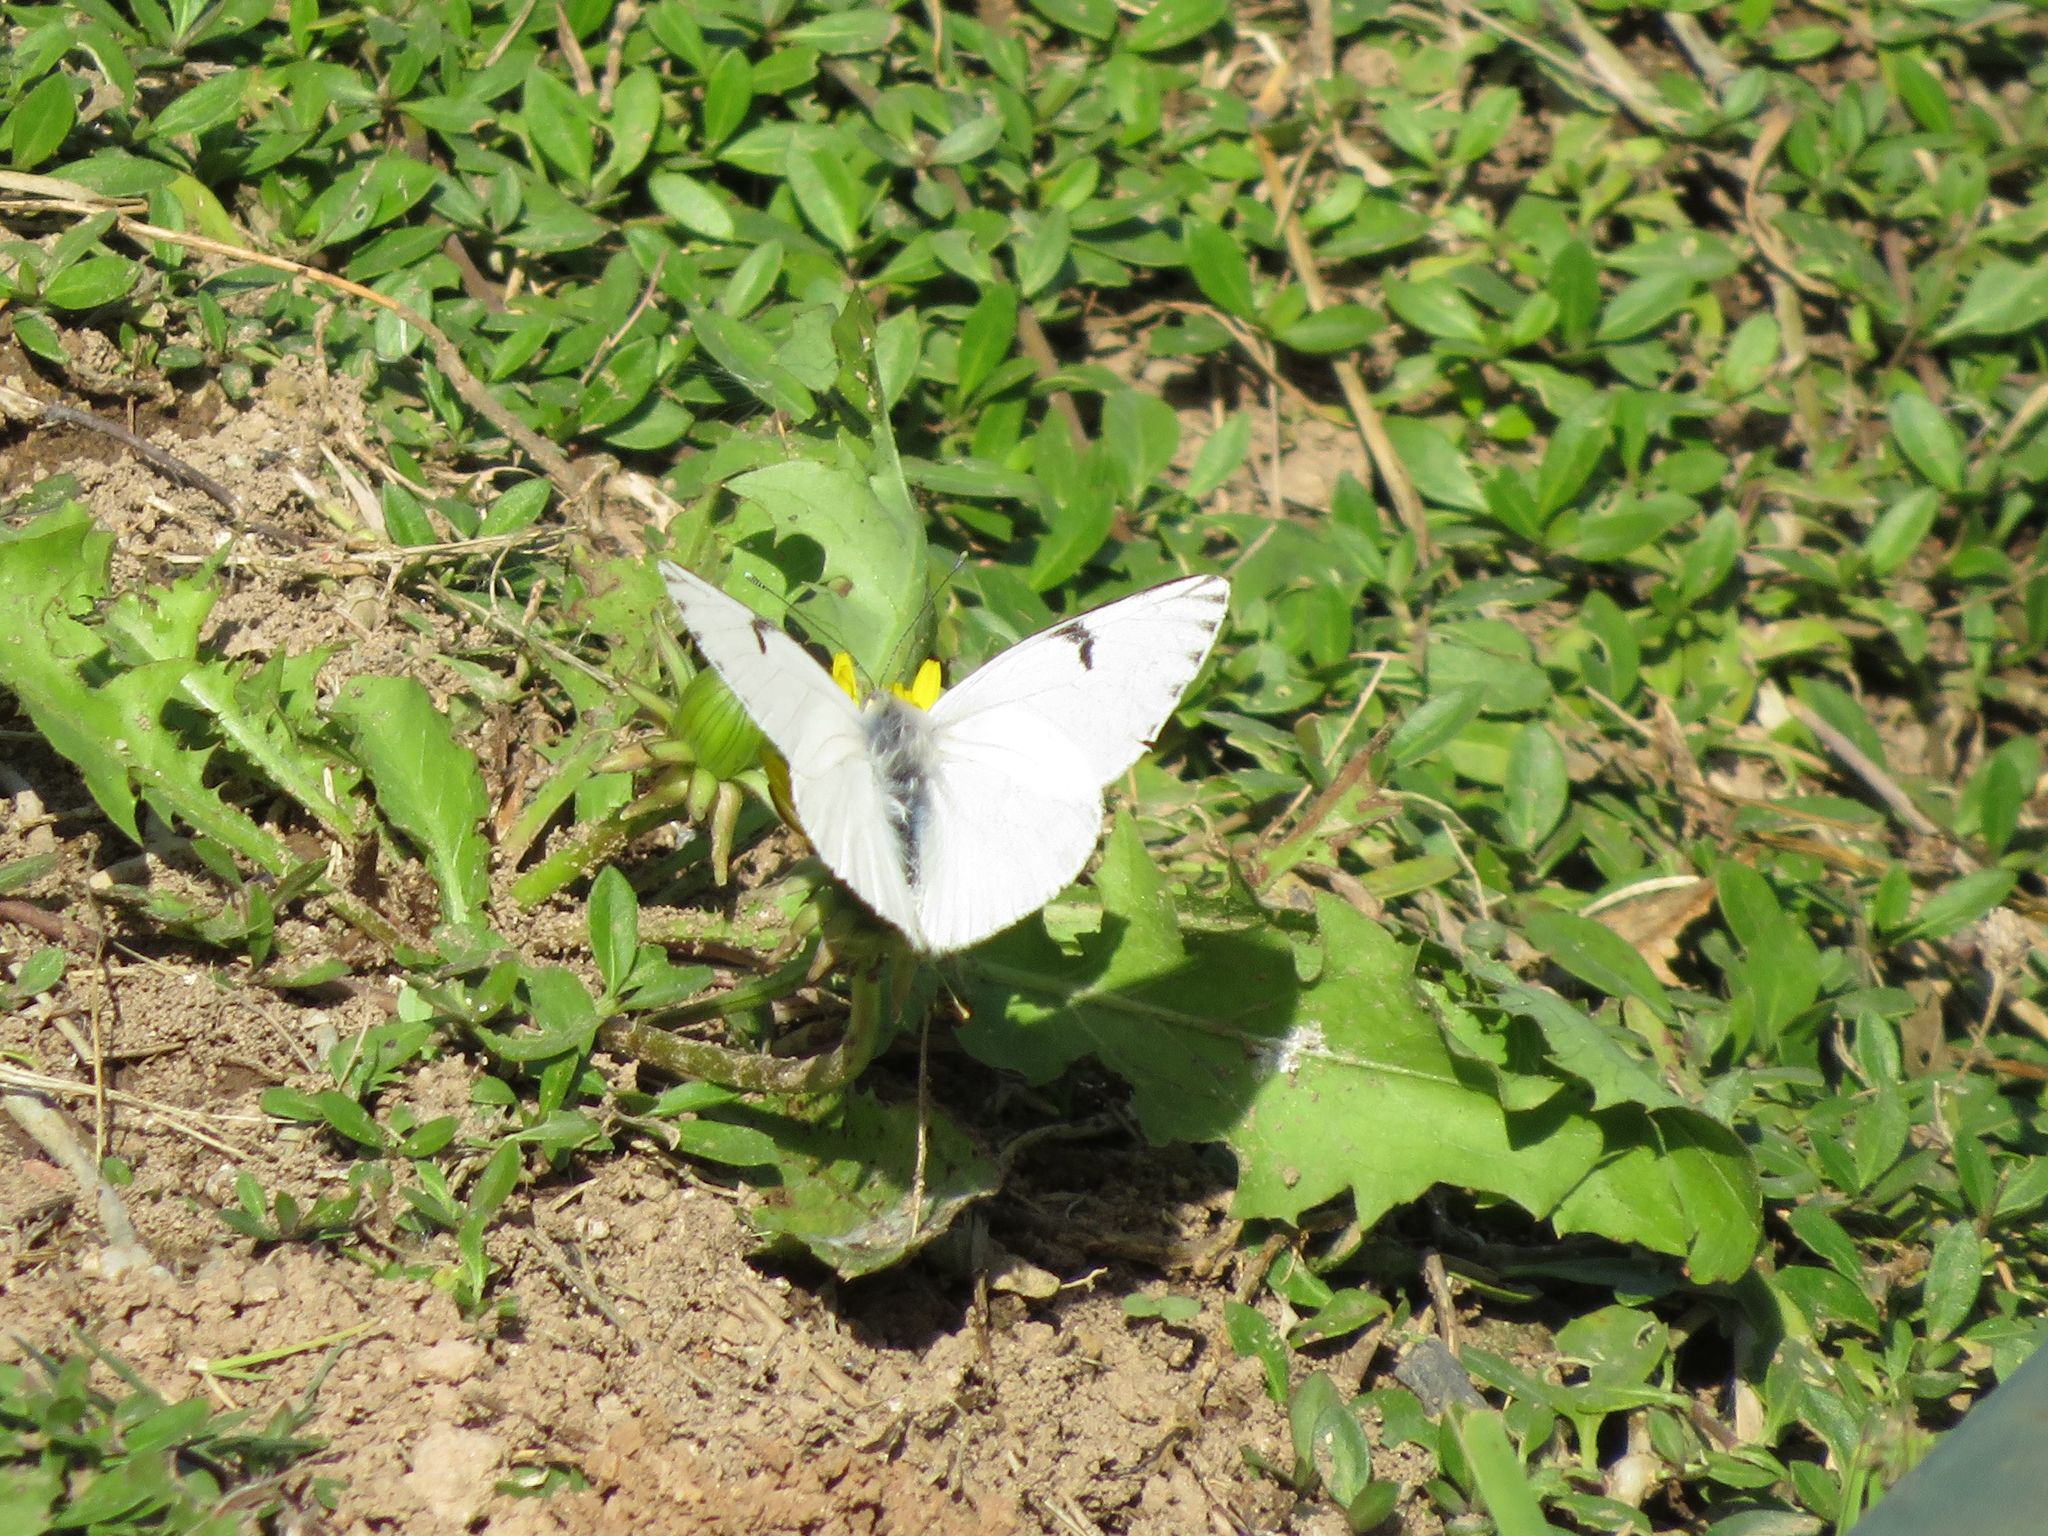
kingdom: Animalia
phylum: Arthropoda
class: Insecta
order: Lepidoptera
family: Pieridae
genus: Tatochila
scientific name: Tatochila mercedis
